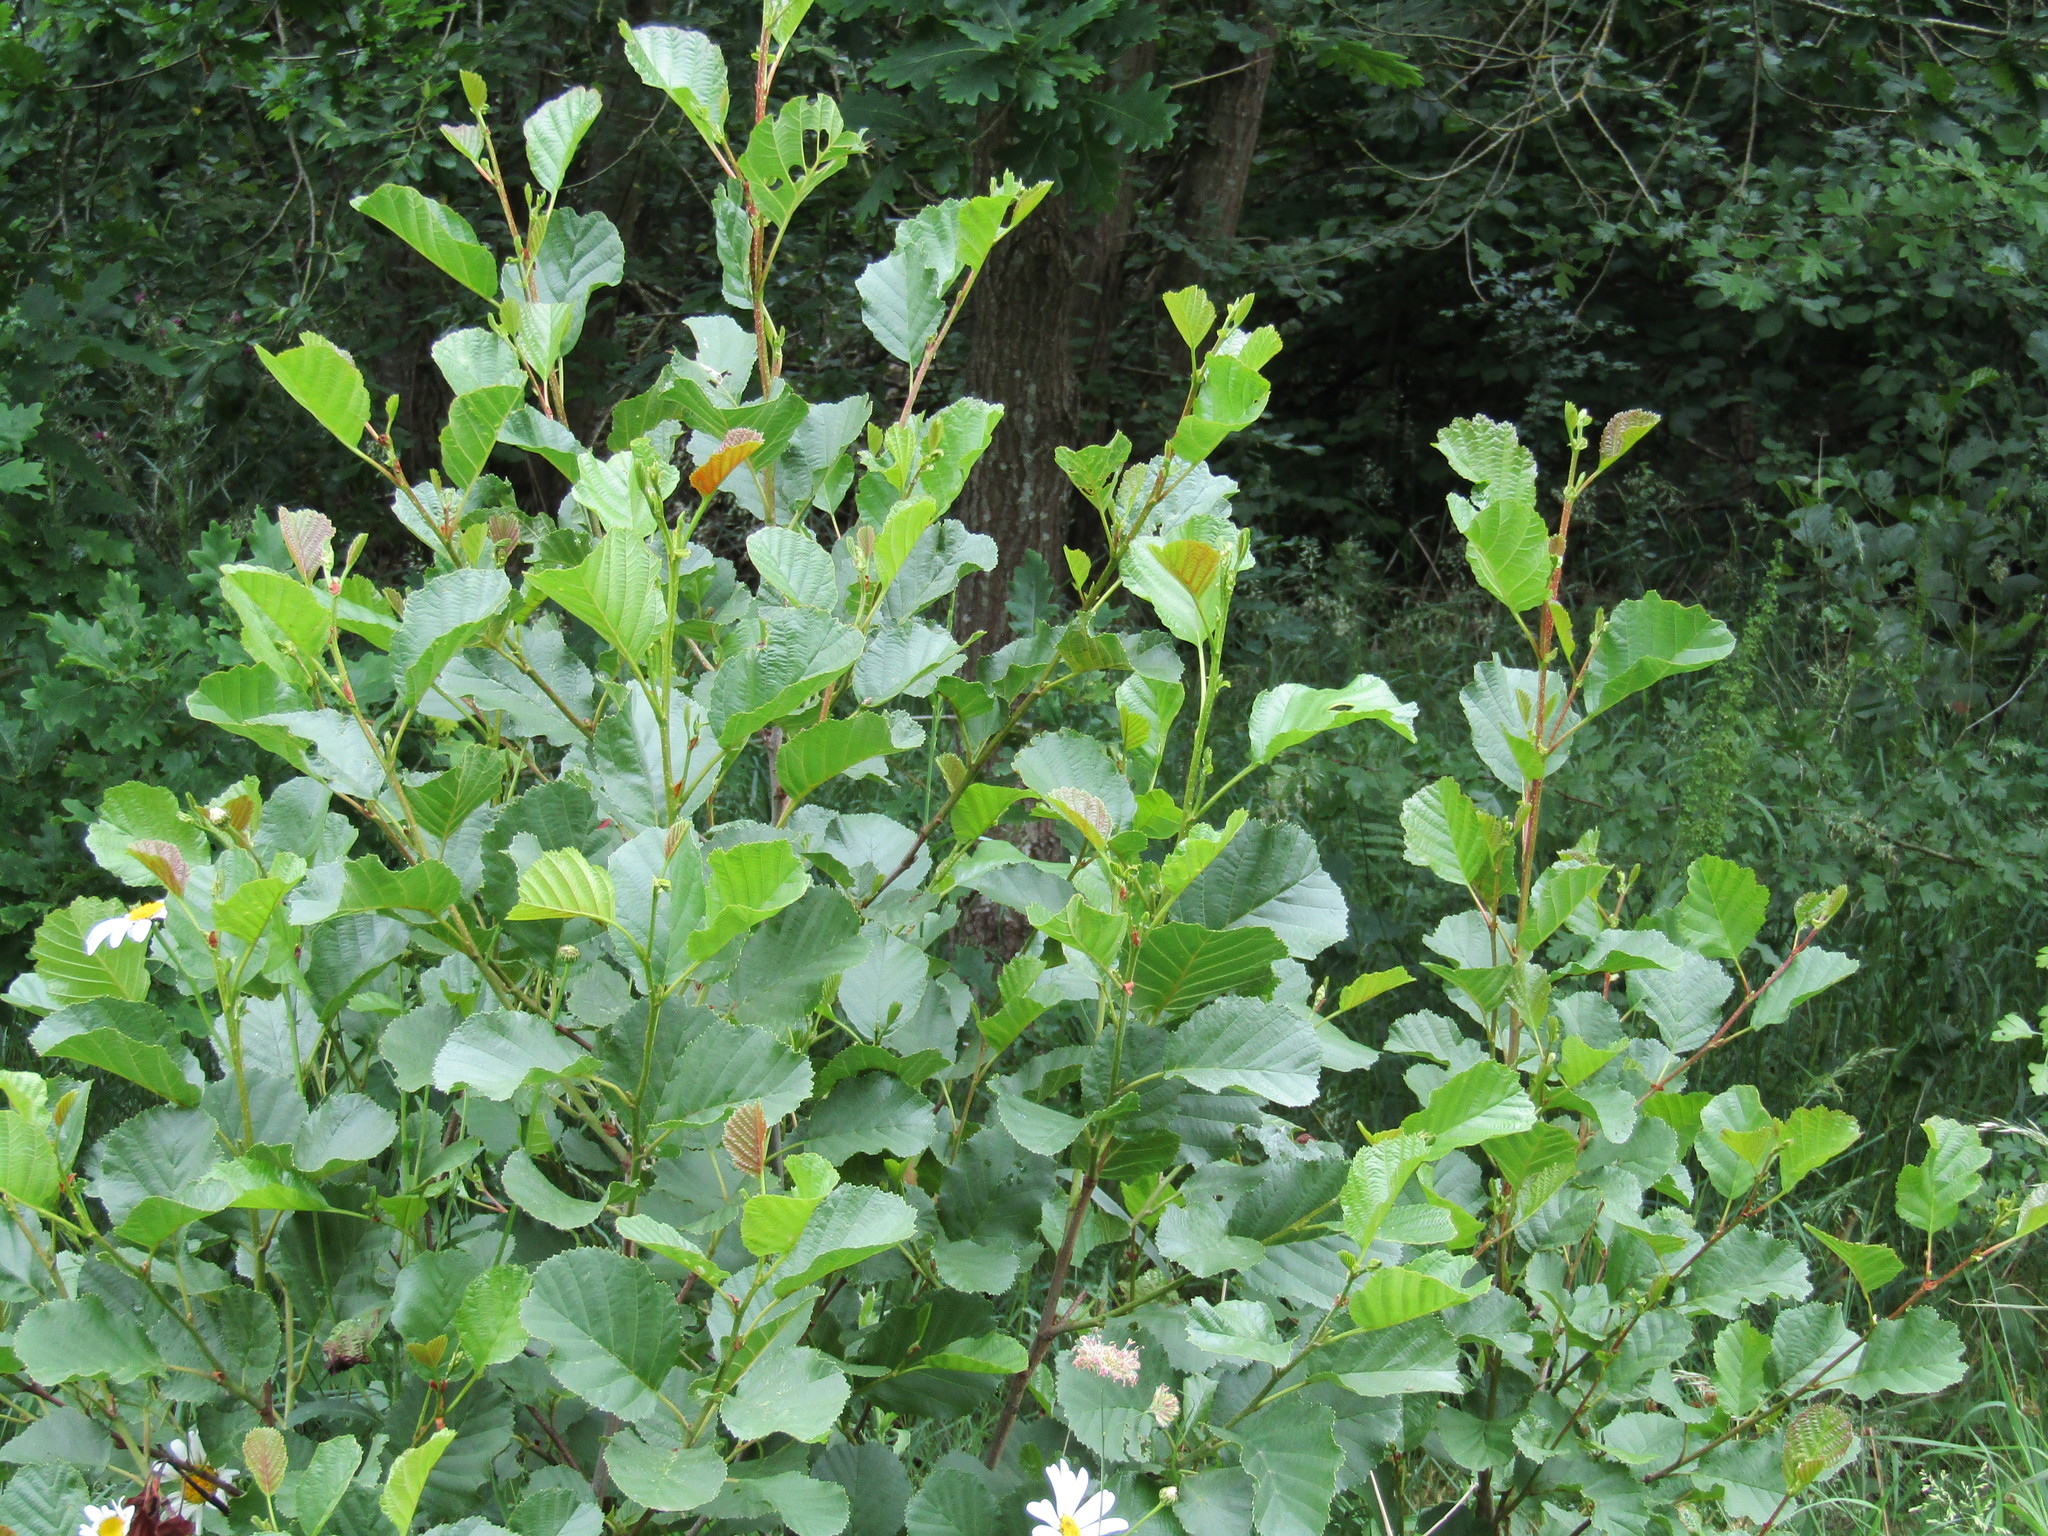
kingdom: Plantae
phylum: Tracheophyta
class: Magnoliopsida
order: Fagales
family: Betulaceae
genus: Alnus
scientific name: Alnus glutinosa
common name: Black alder
